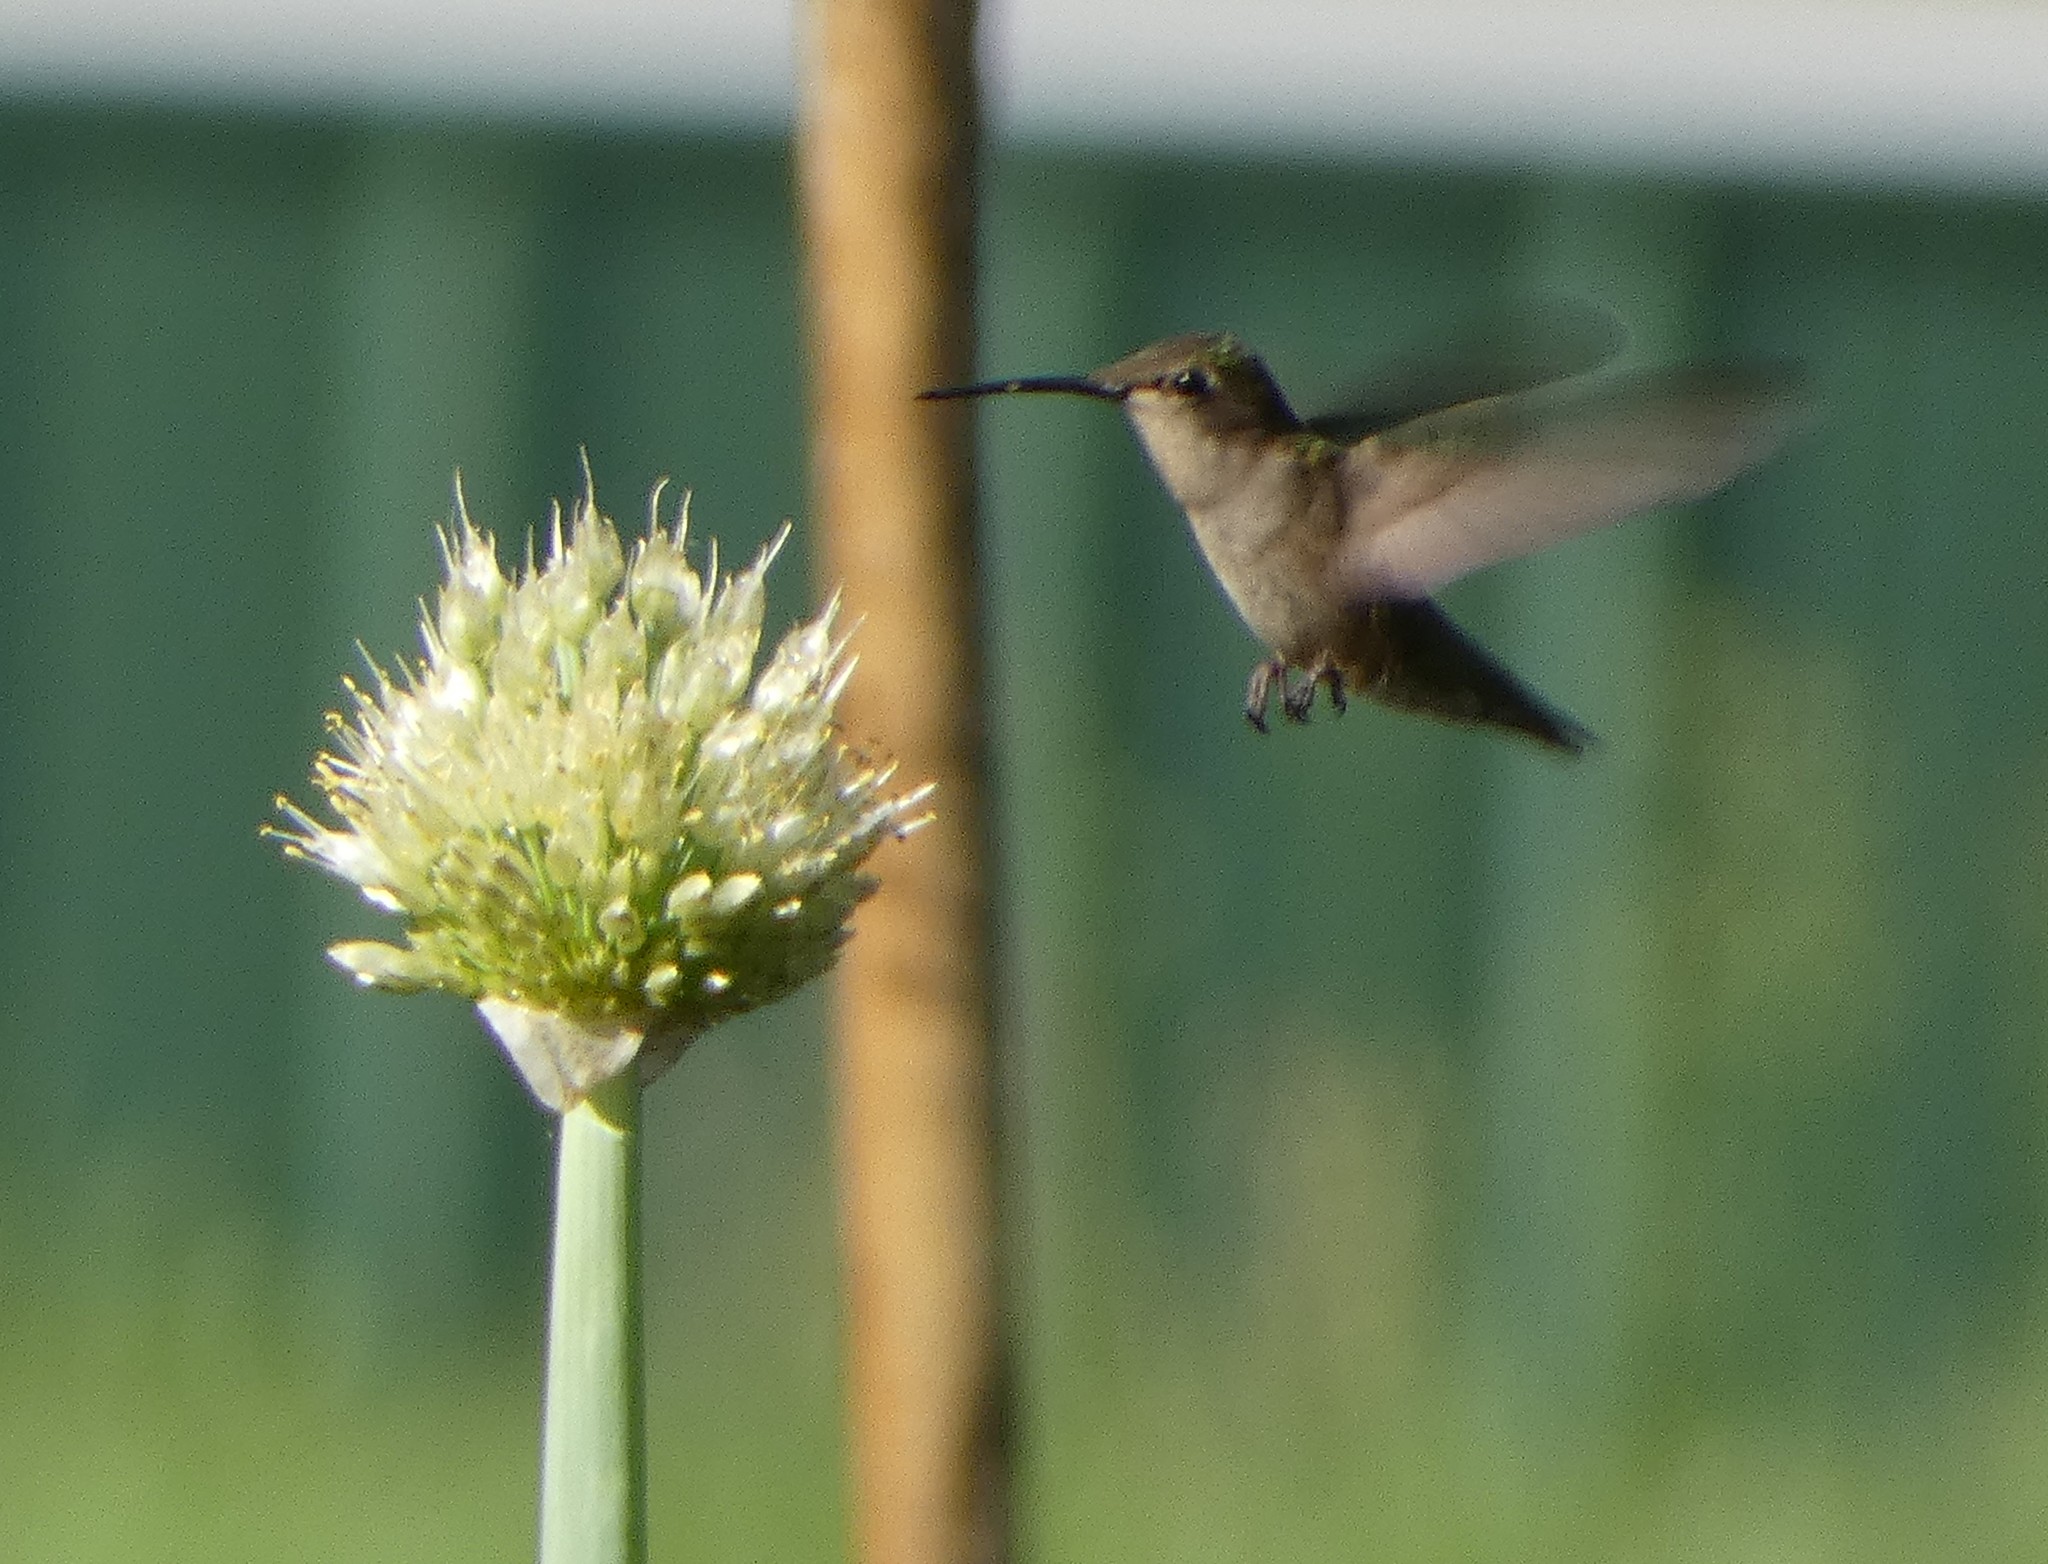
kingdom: Animalia
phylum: Chordata
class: Aves
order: Apodiformes
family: Trochilidae
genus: Archilochus
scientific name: Archilochus colubris
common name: Ruby-throated hummingbird
